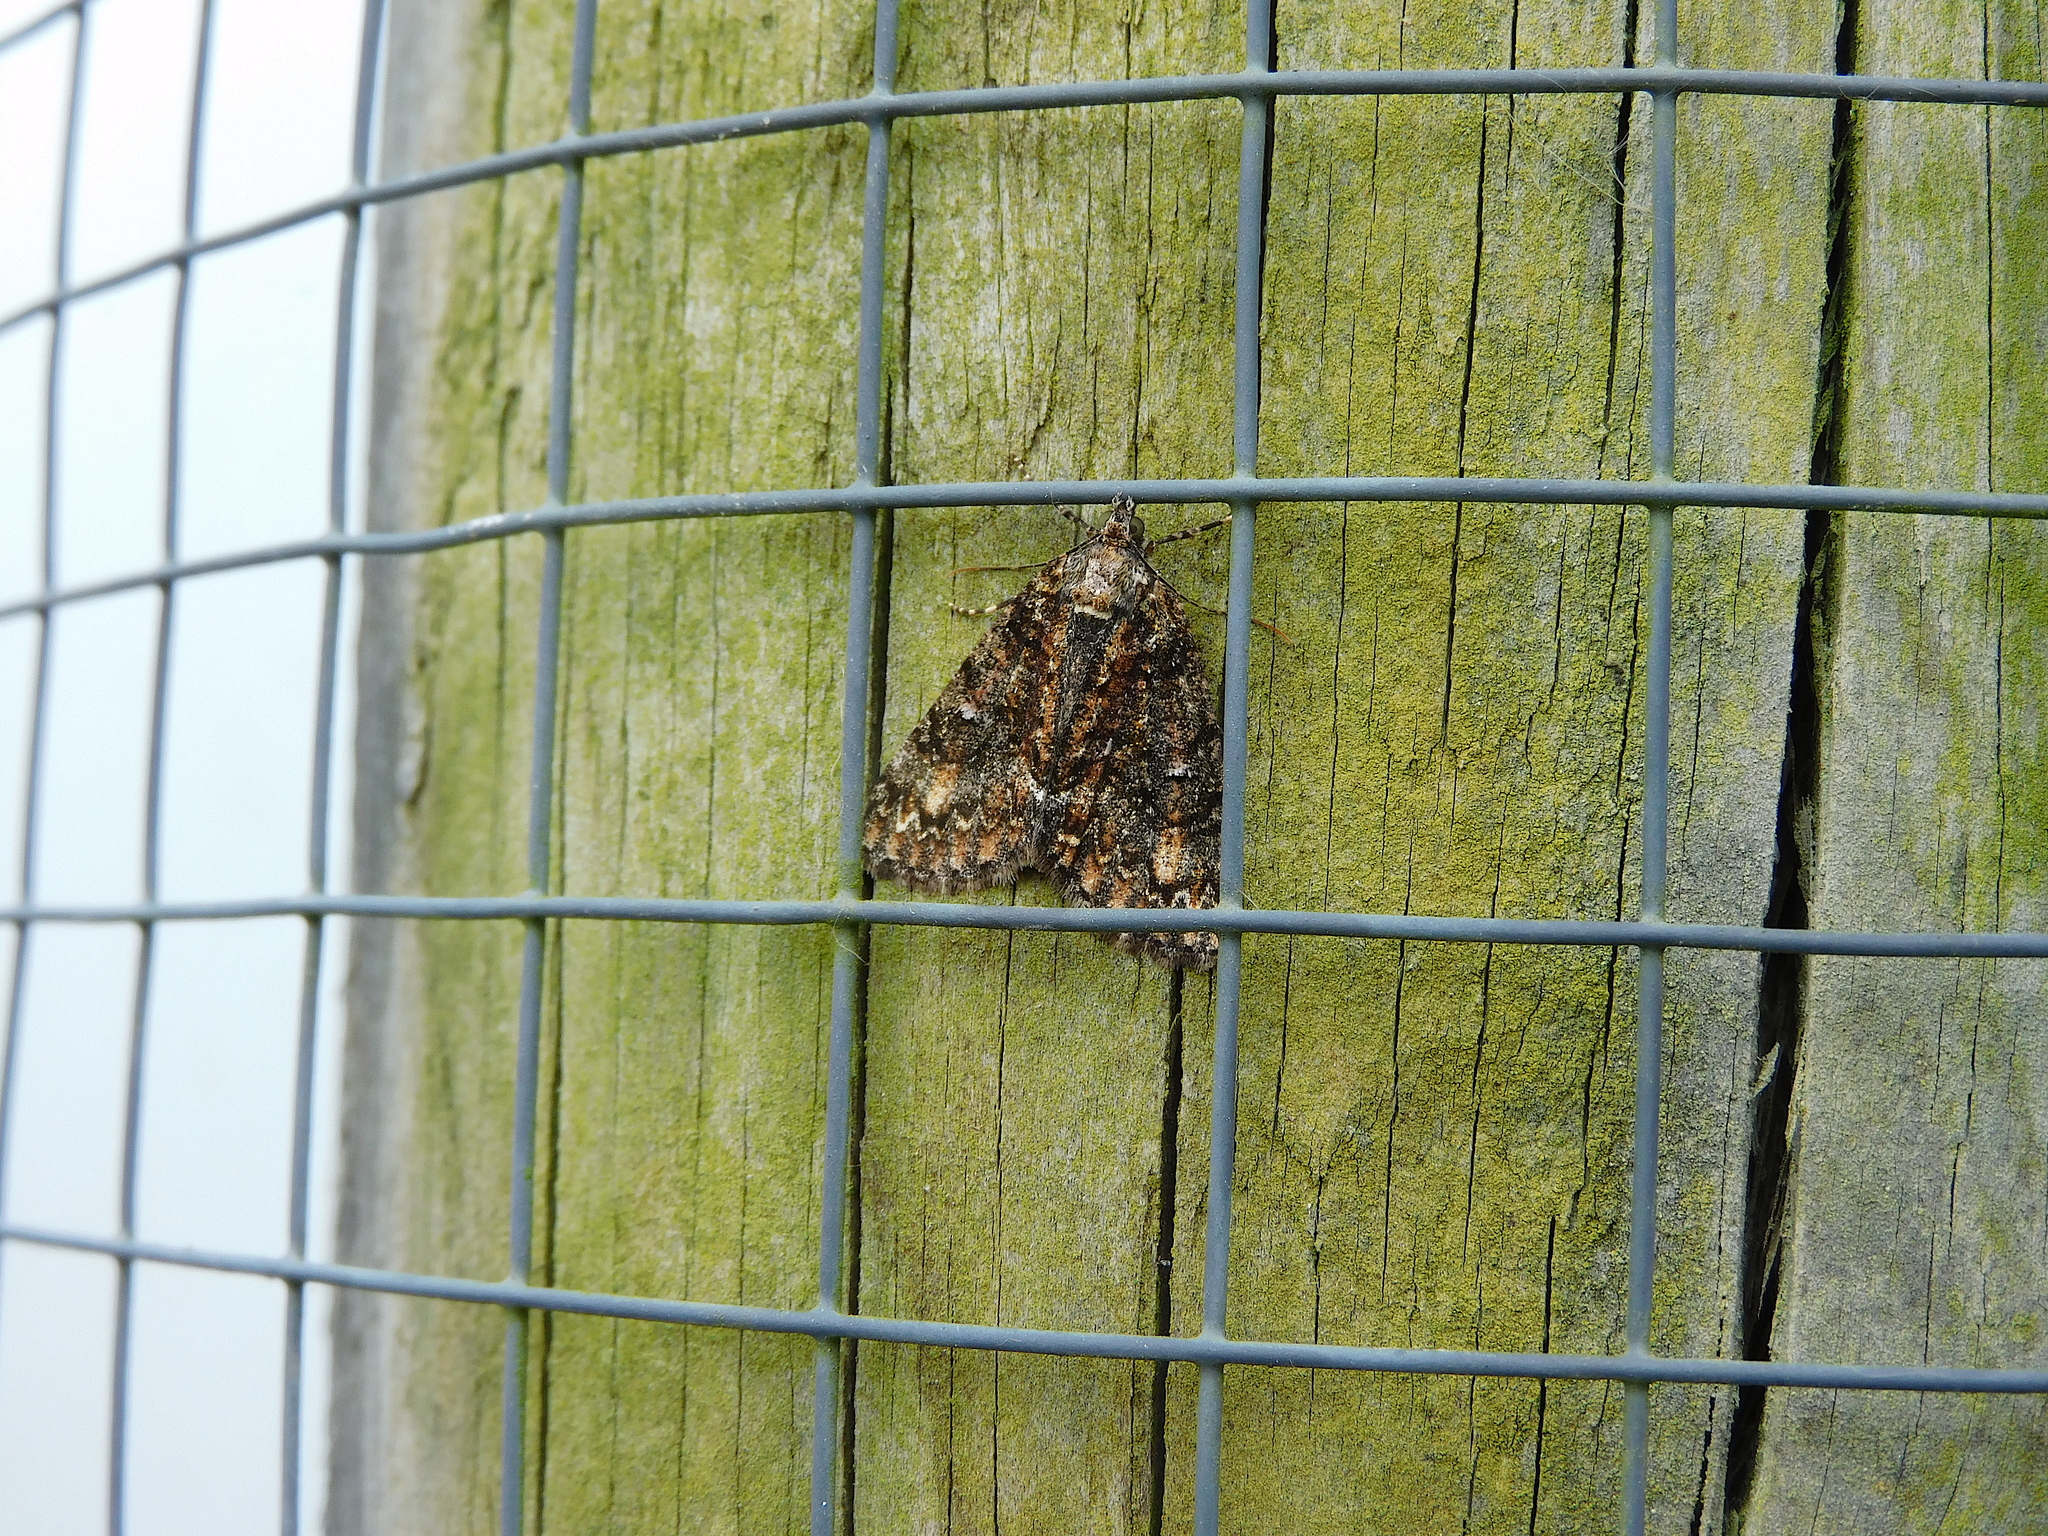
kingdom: Animalia
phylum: Arthropoda
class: Insecta
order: Lepidoptera
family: Geometridae
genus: Pseudocoremia
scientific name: Pseudocoremia suavis
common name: Common forest looper
